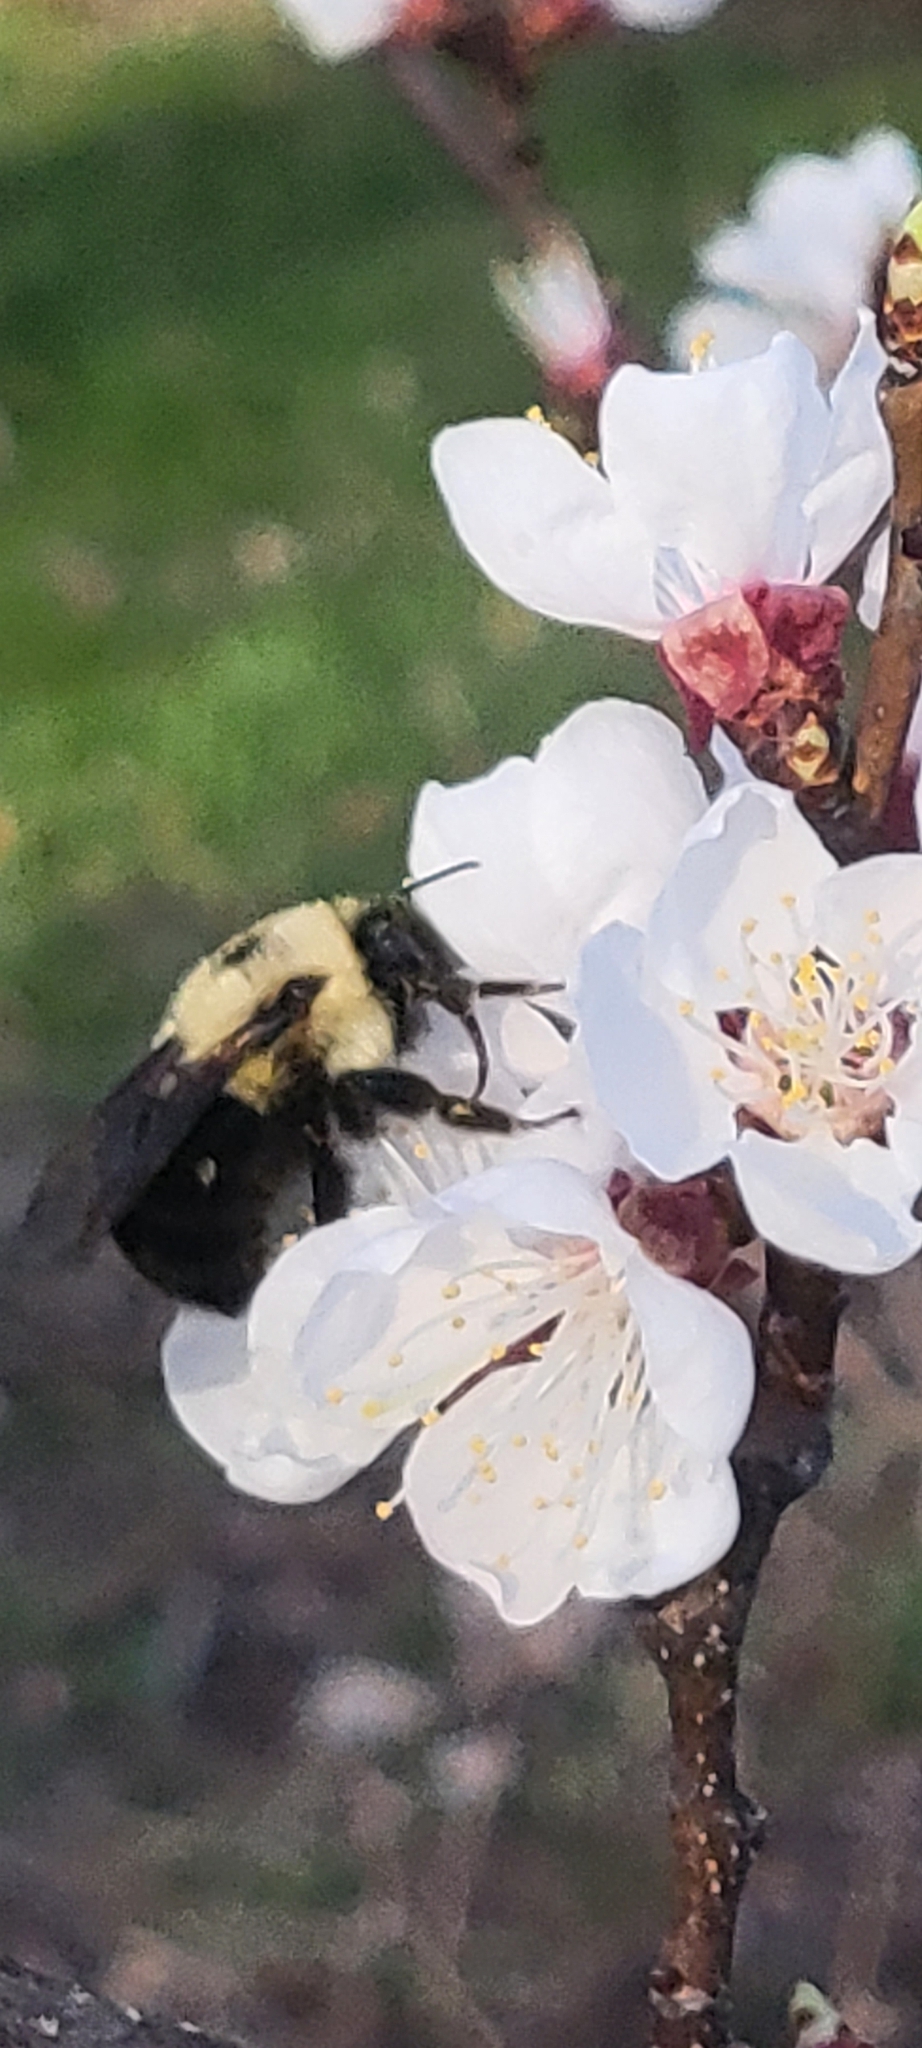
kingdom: Animalia
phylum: Arthropoda
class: Insecta
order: Hymenoptera
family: Apidae
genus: Bombus
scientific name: Bombus bimaculatus
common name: Two-spotted bumble bee
